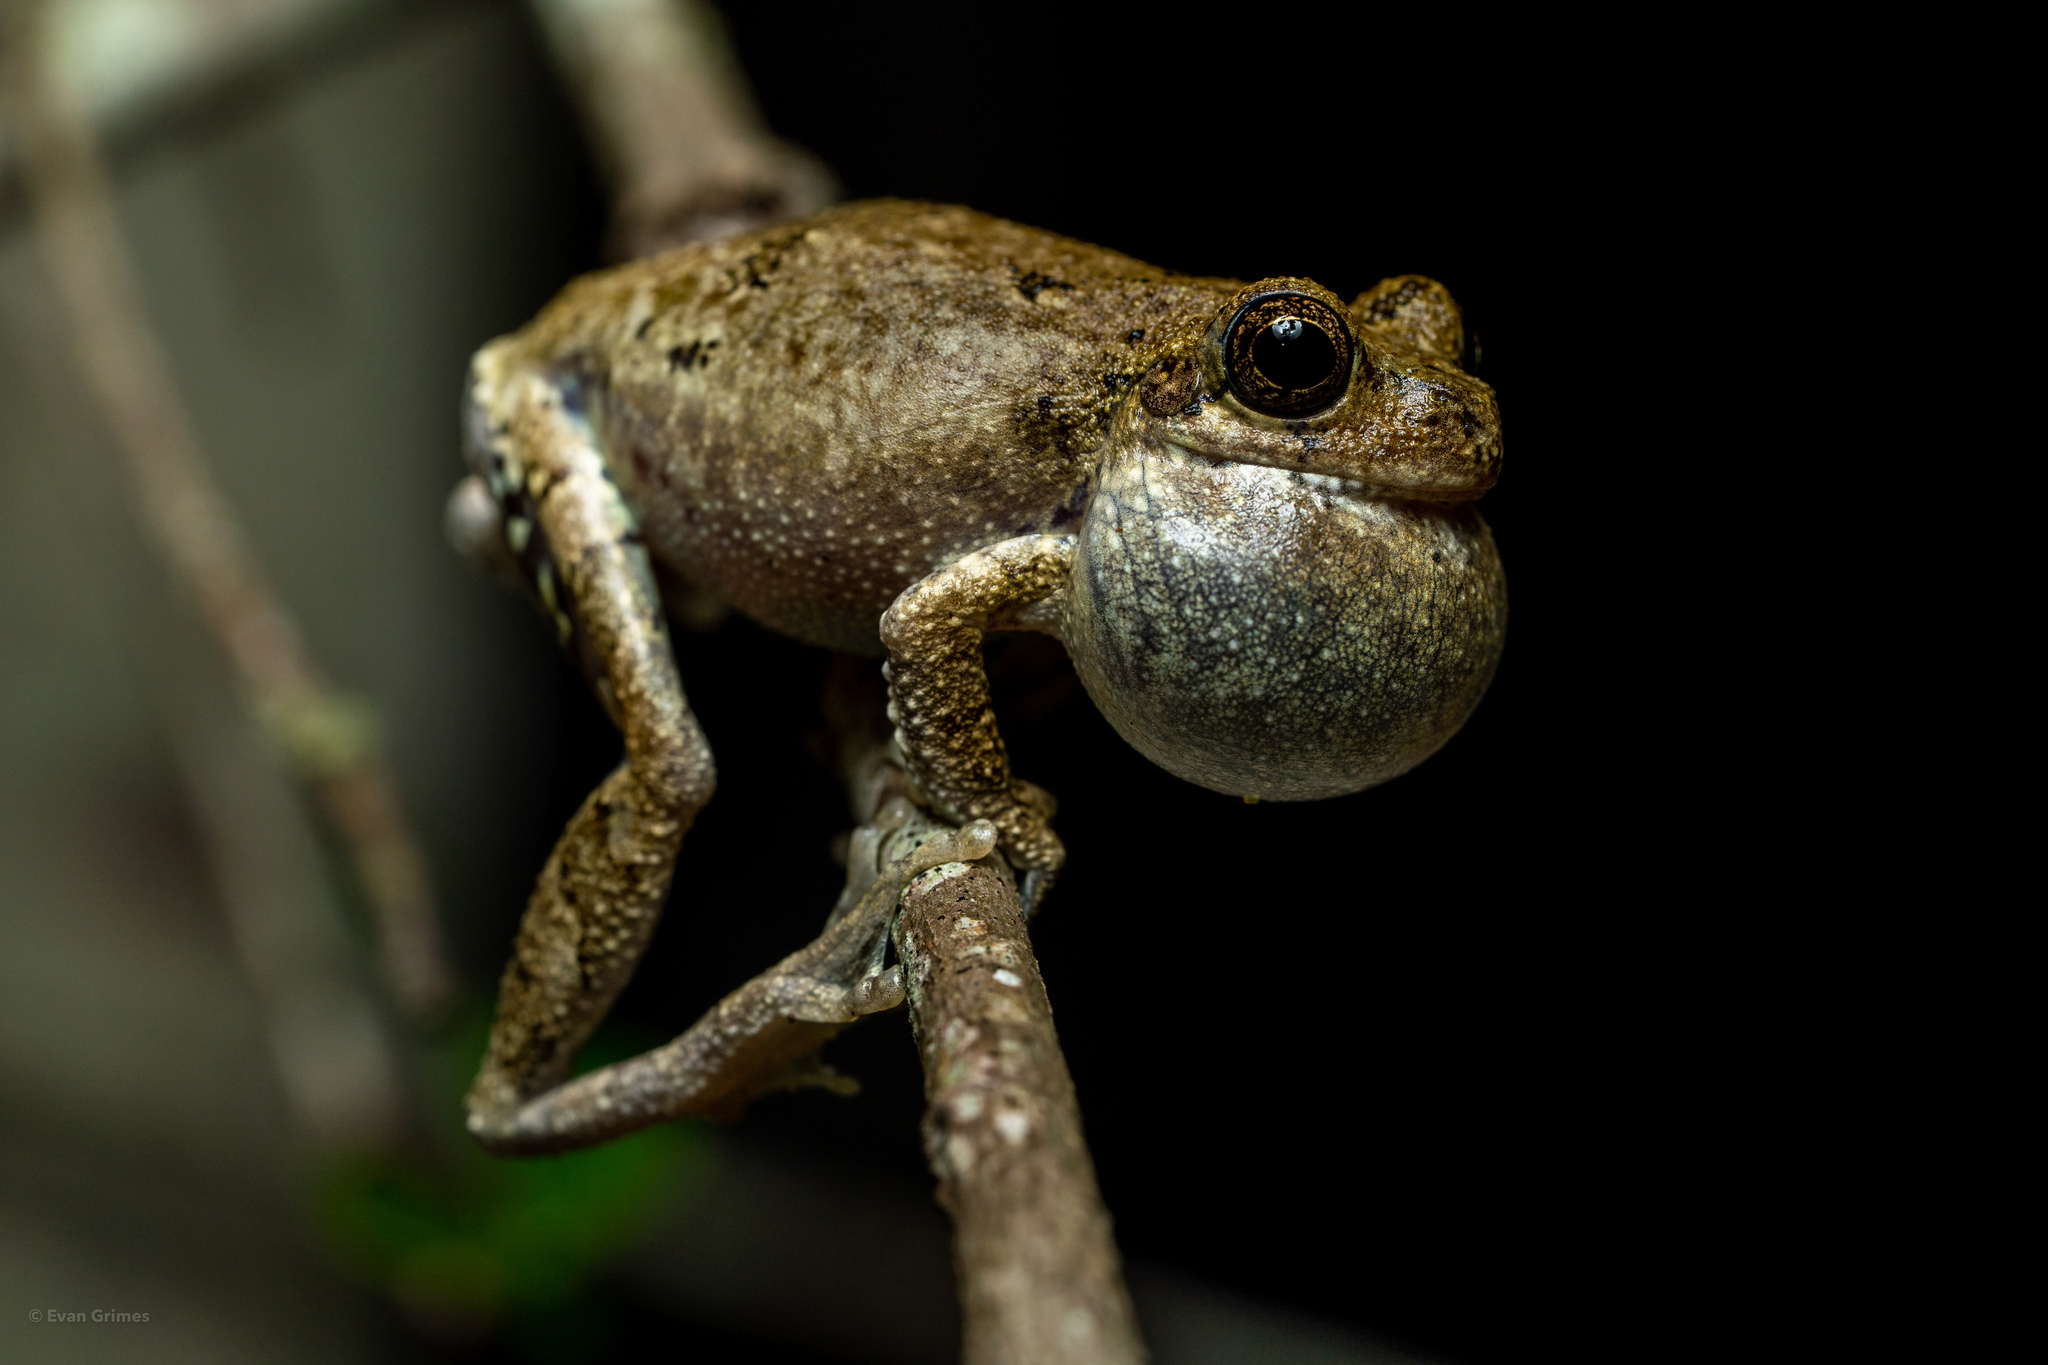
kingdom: Animalia
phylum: Chordata
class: Amphibia
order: Anura
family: Hylidae
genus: Dryophytes
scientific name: Dryophytes avivoca
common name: Bird-voiced treefrog
